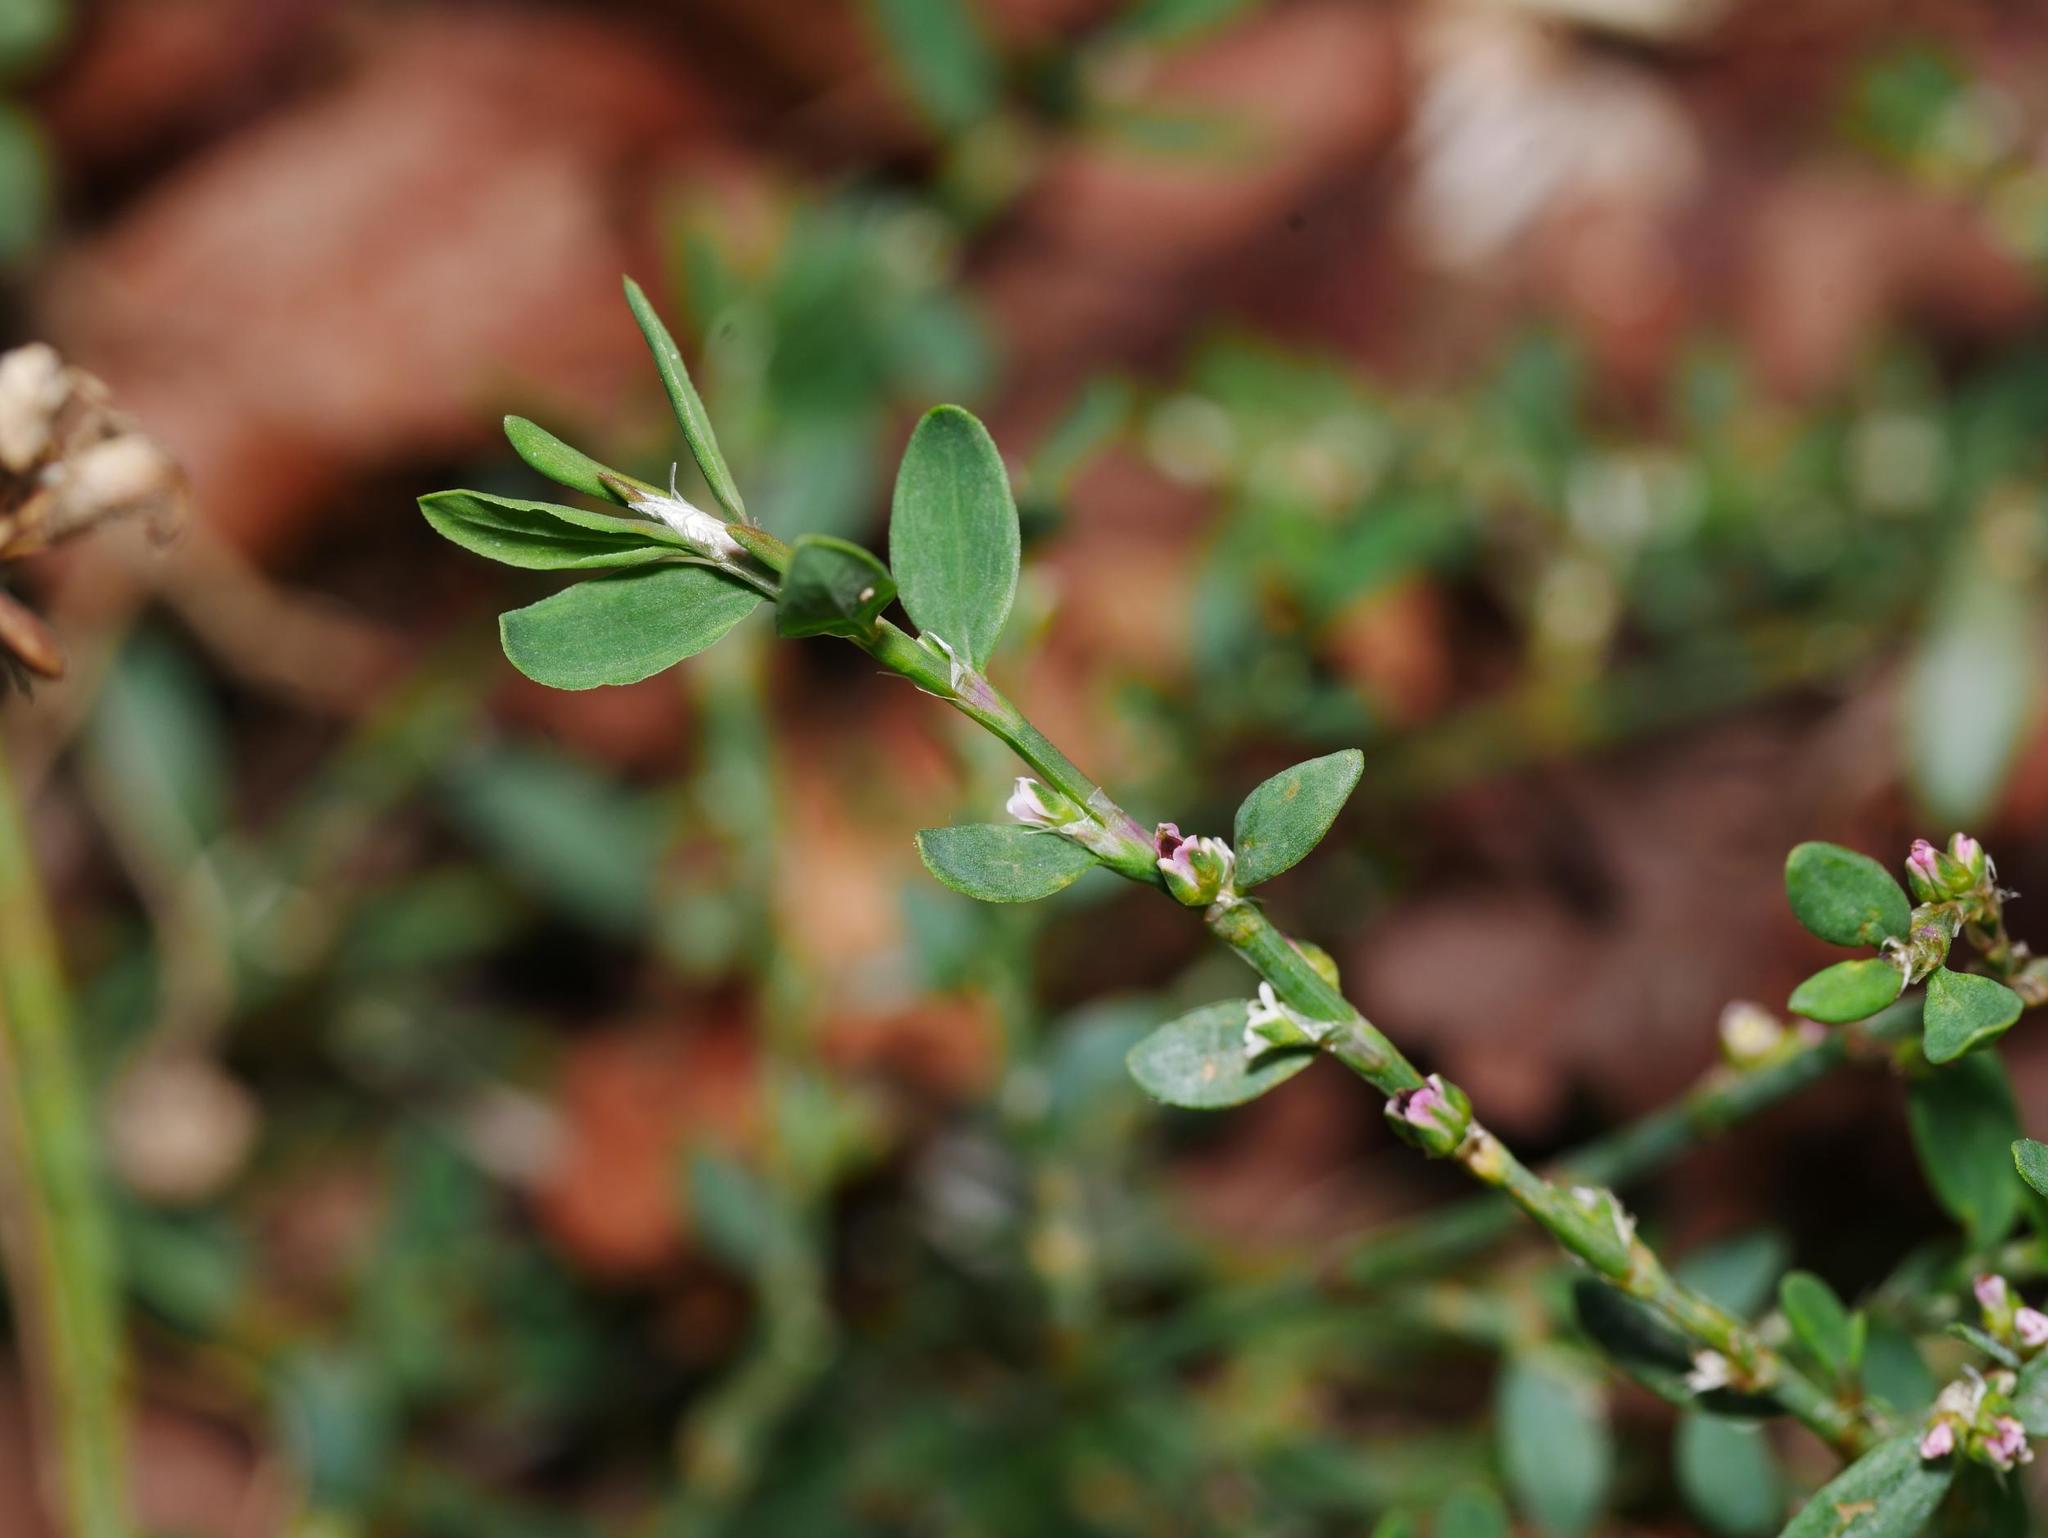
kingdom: Plantae
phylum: Tracheophyta
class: Magnoliopsida
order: Caryophyllales
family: Polygonaceae
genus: Polygonum
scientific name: Polygonum aviculare
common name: Prostrate knotweed
